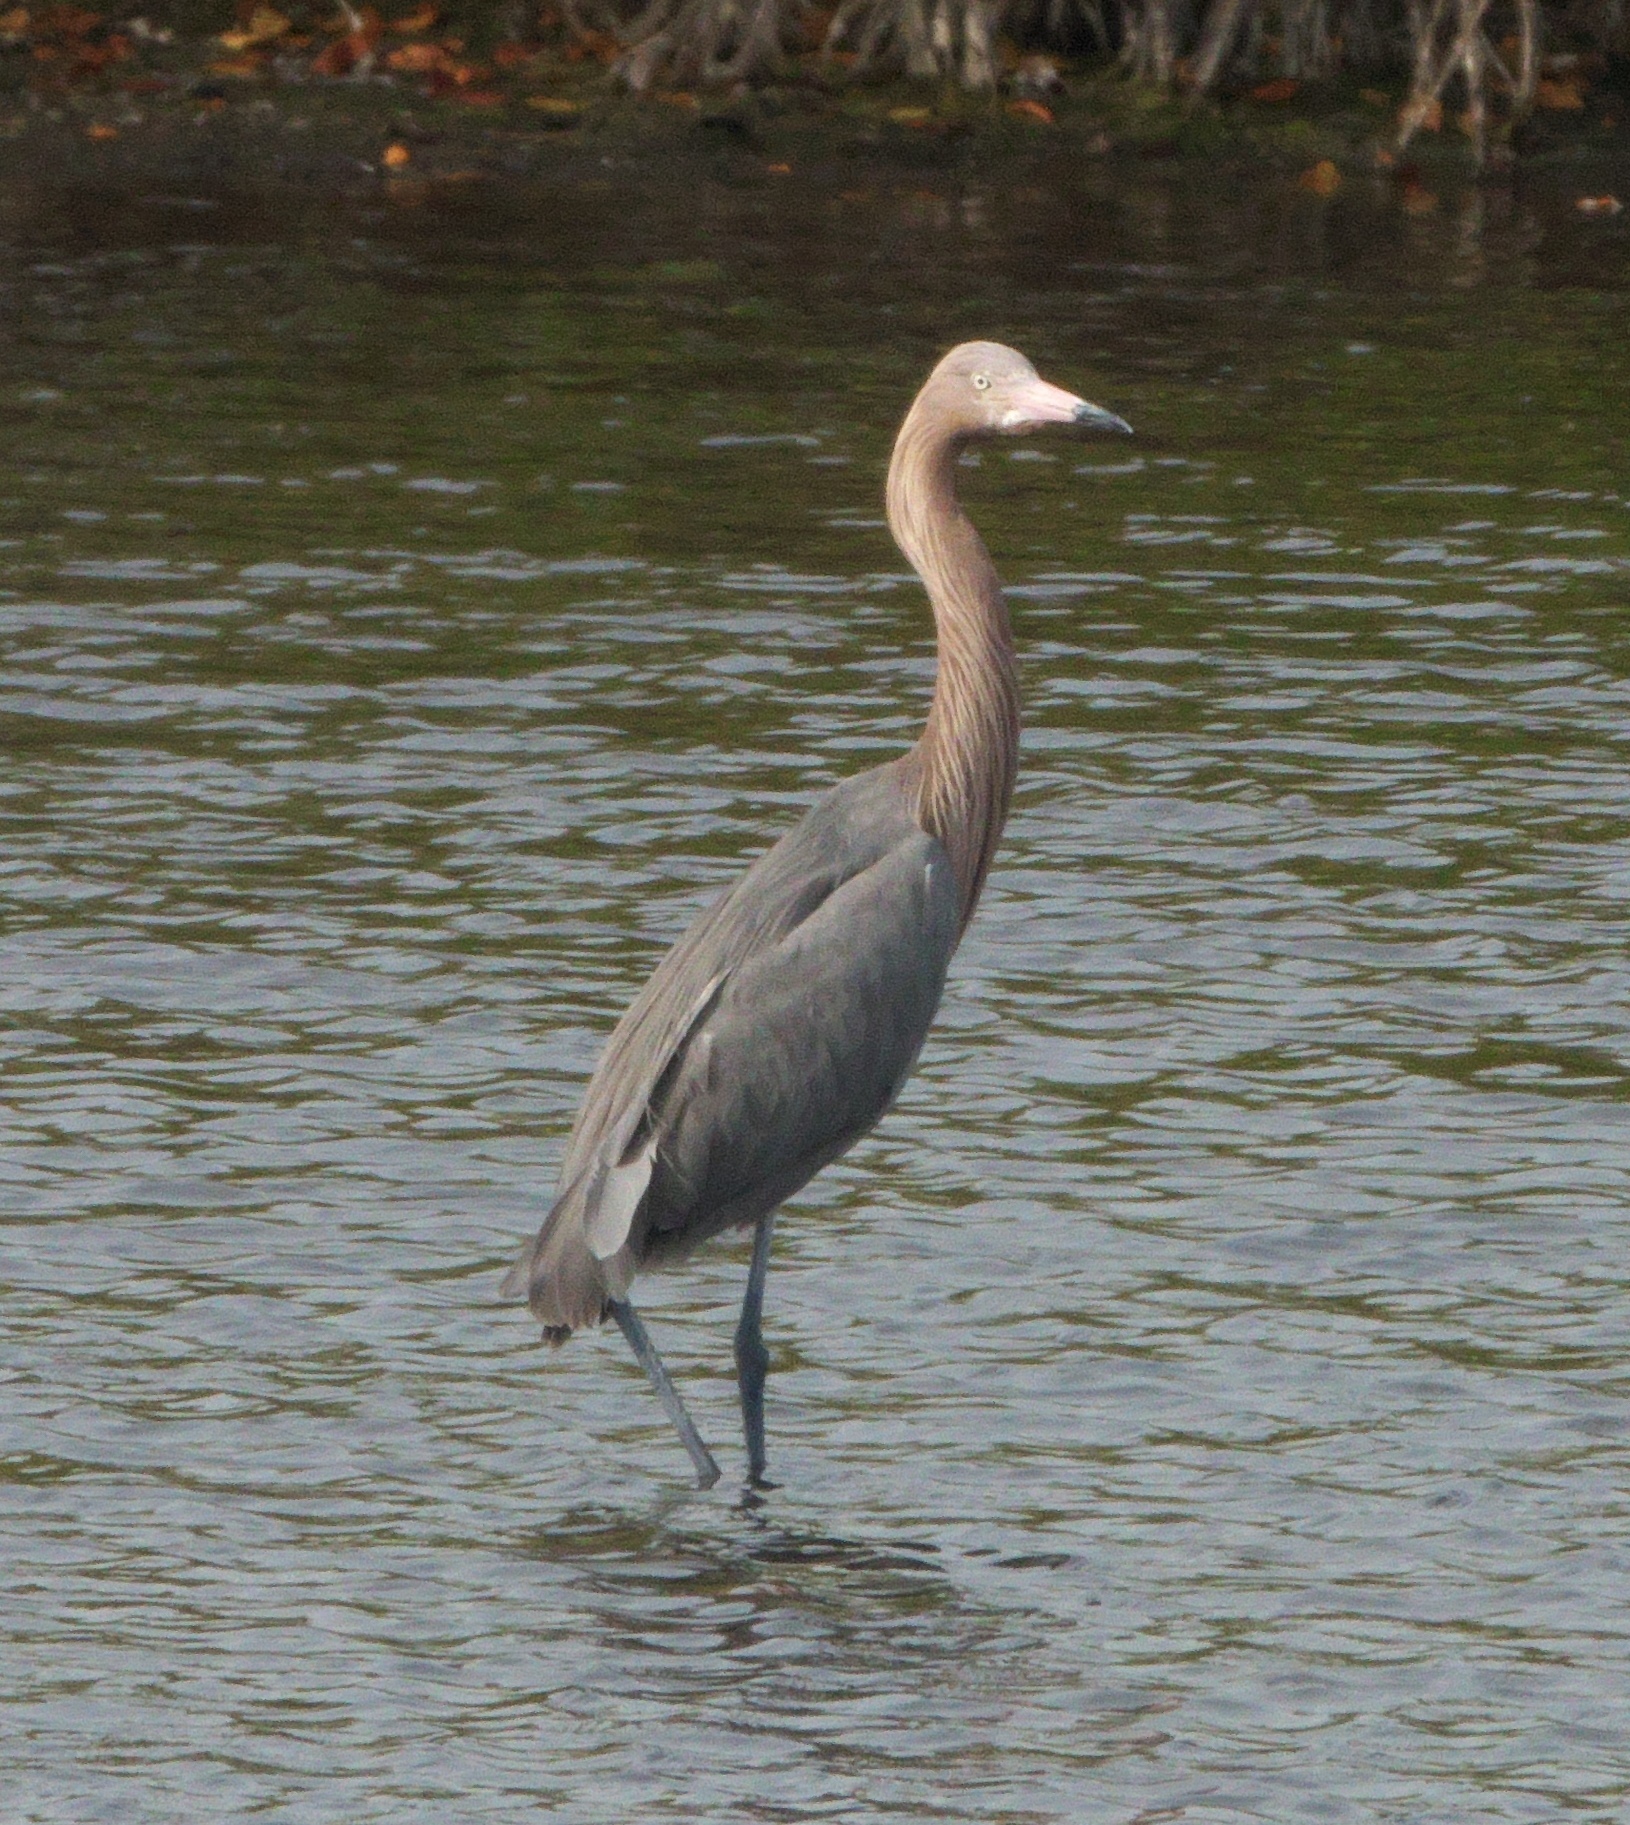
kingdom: Animalia
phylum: Chordata
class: Aves
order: Pelecaniformes
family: Ardeidae
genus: Egretta
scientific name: Egretta rufescens
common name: Reddish egret
